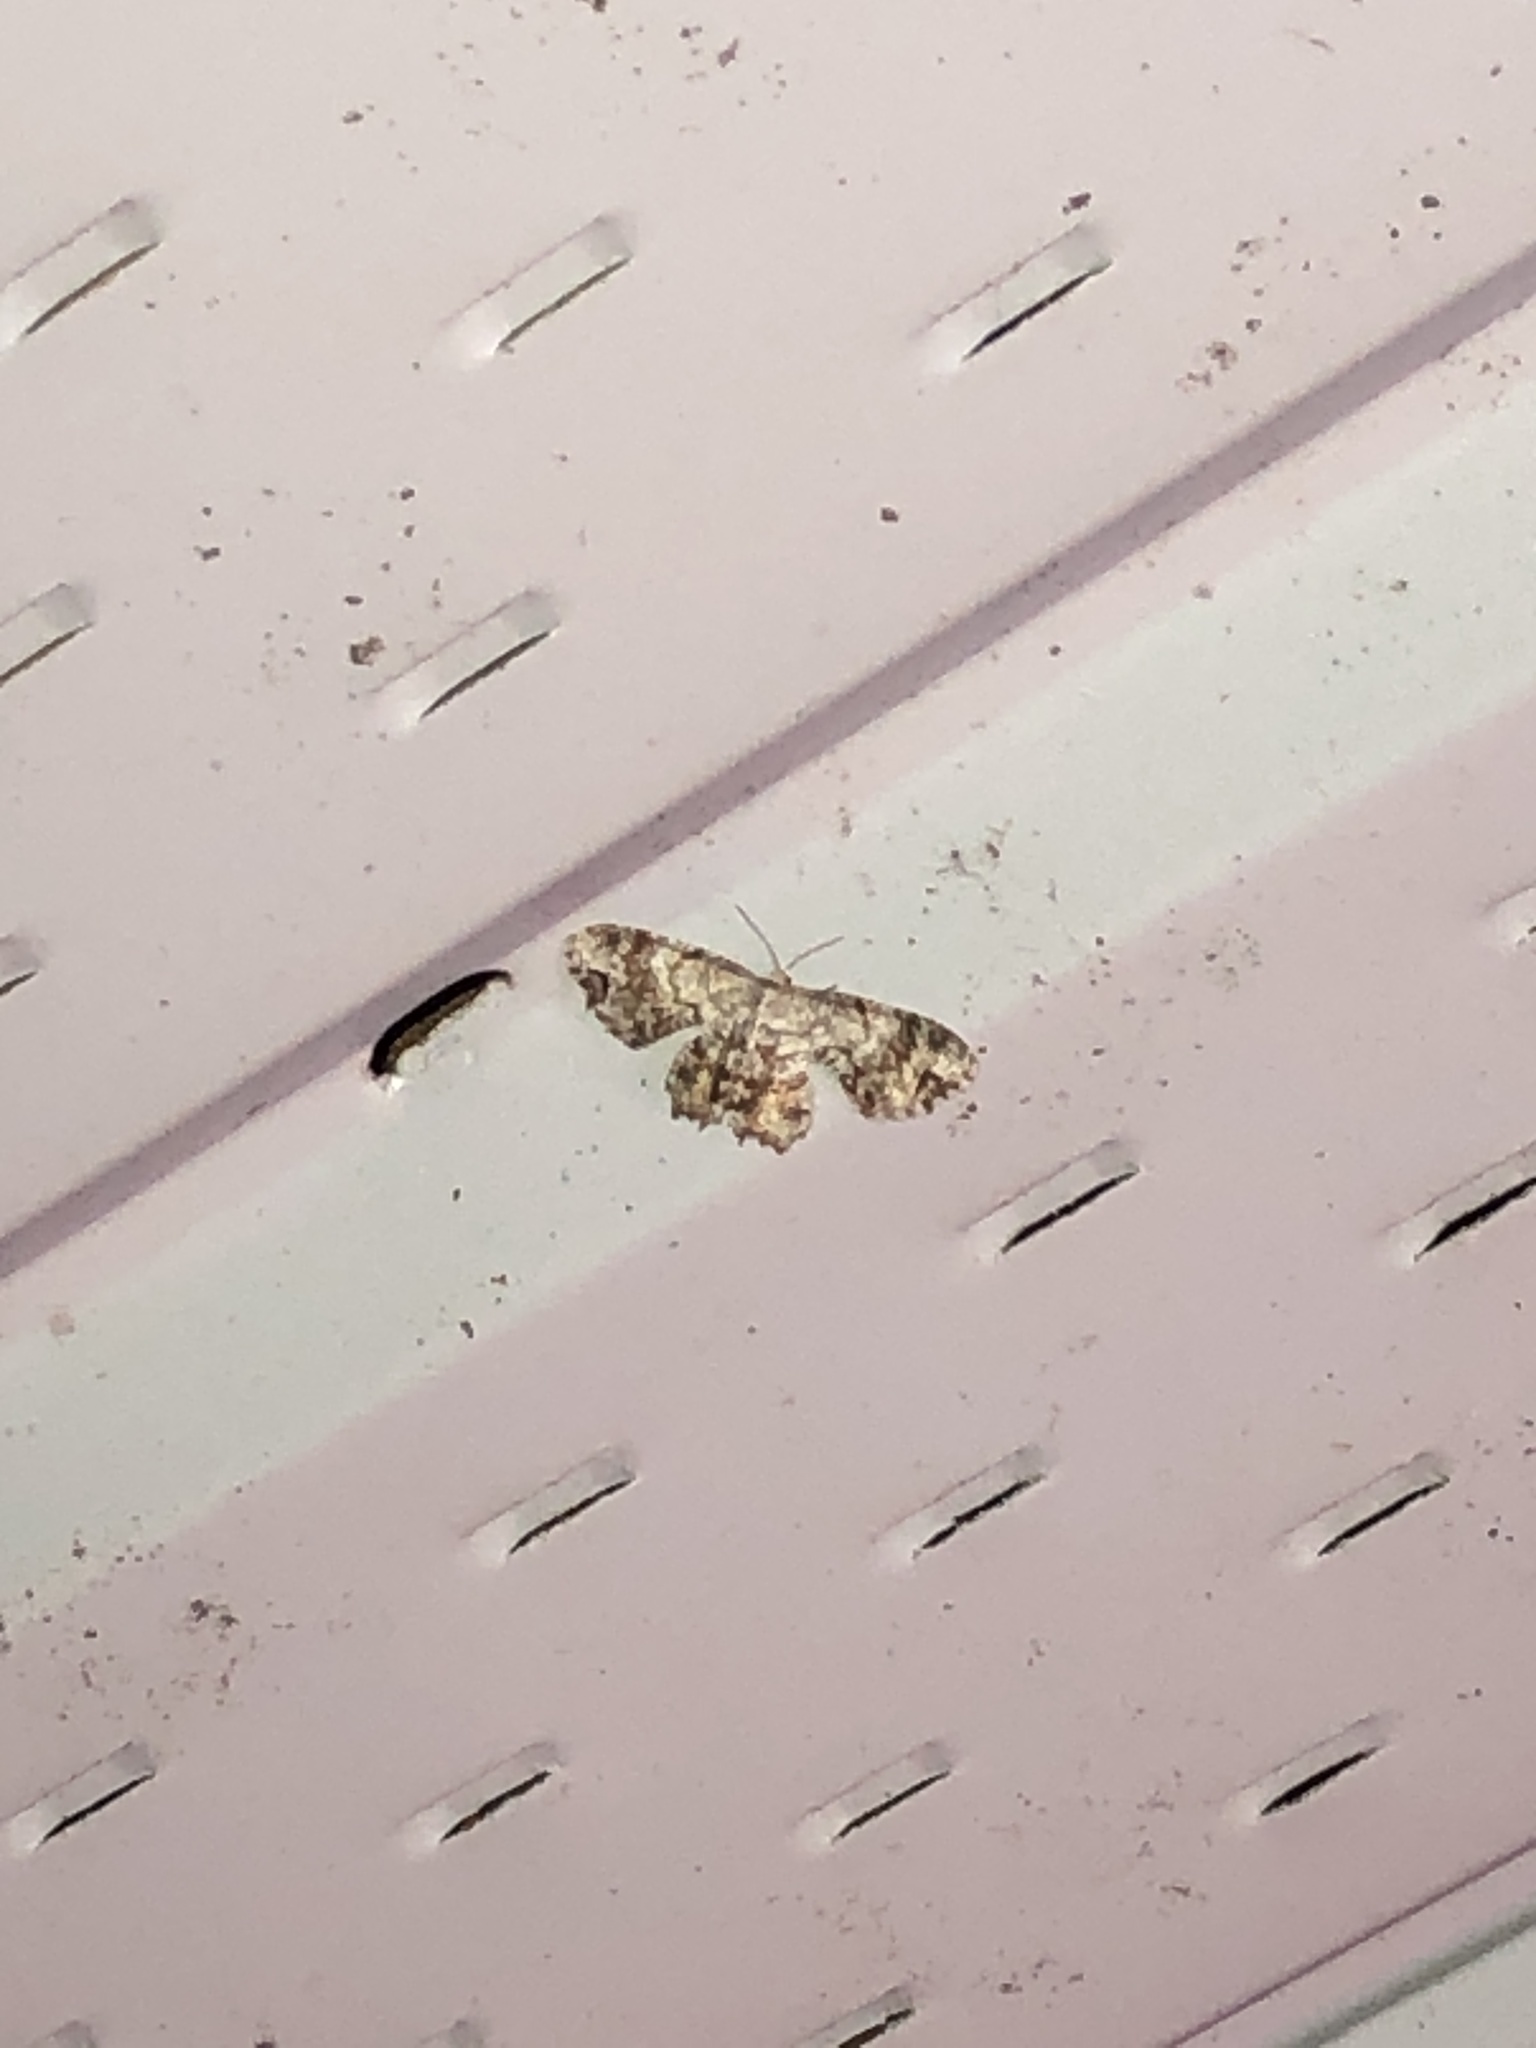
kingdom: Animalia
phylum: Arthropoda
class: Insecta
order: Lepidoptera
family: Uraniidae
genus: Epiplema
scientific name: Epiplema Callizzia amorata
